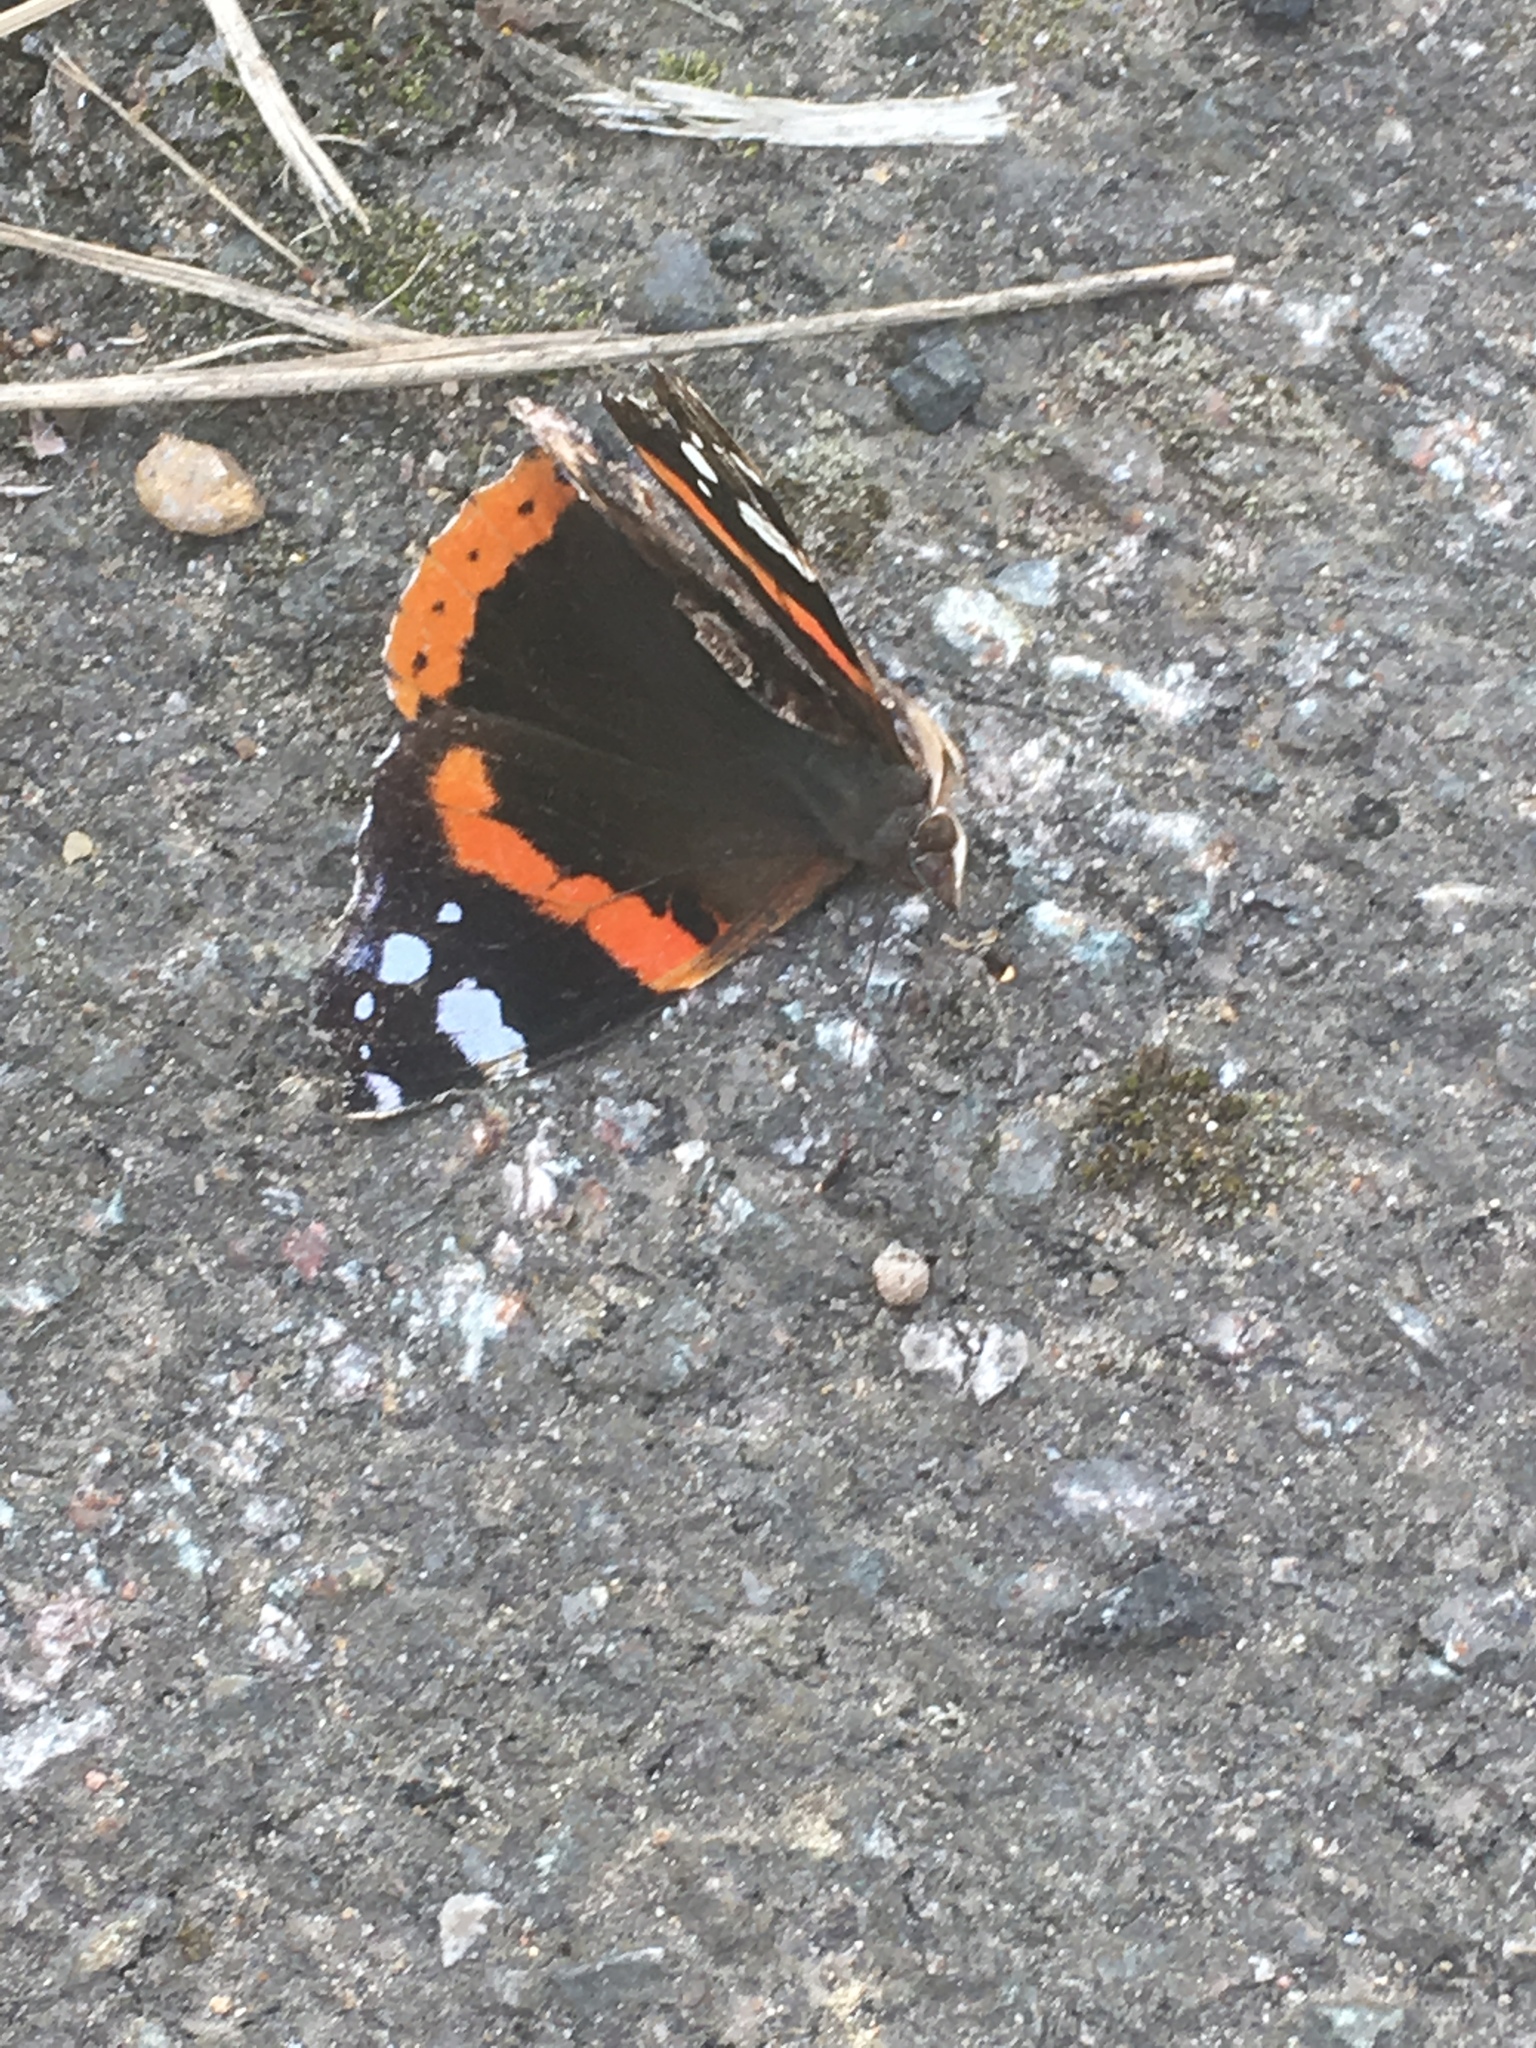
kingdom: Animalia
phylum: Arthropoda
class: Insecta
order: Lepidoptera
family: Nymphalidae
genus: Vanessa
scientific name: Vanessa atalanta
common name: Red admiral
